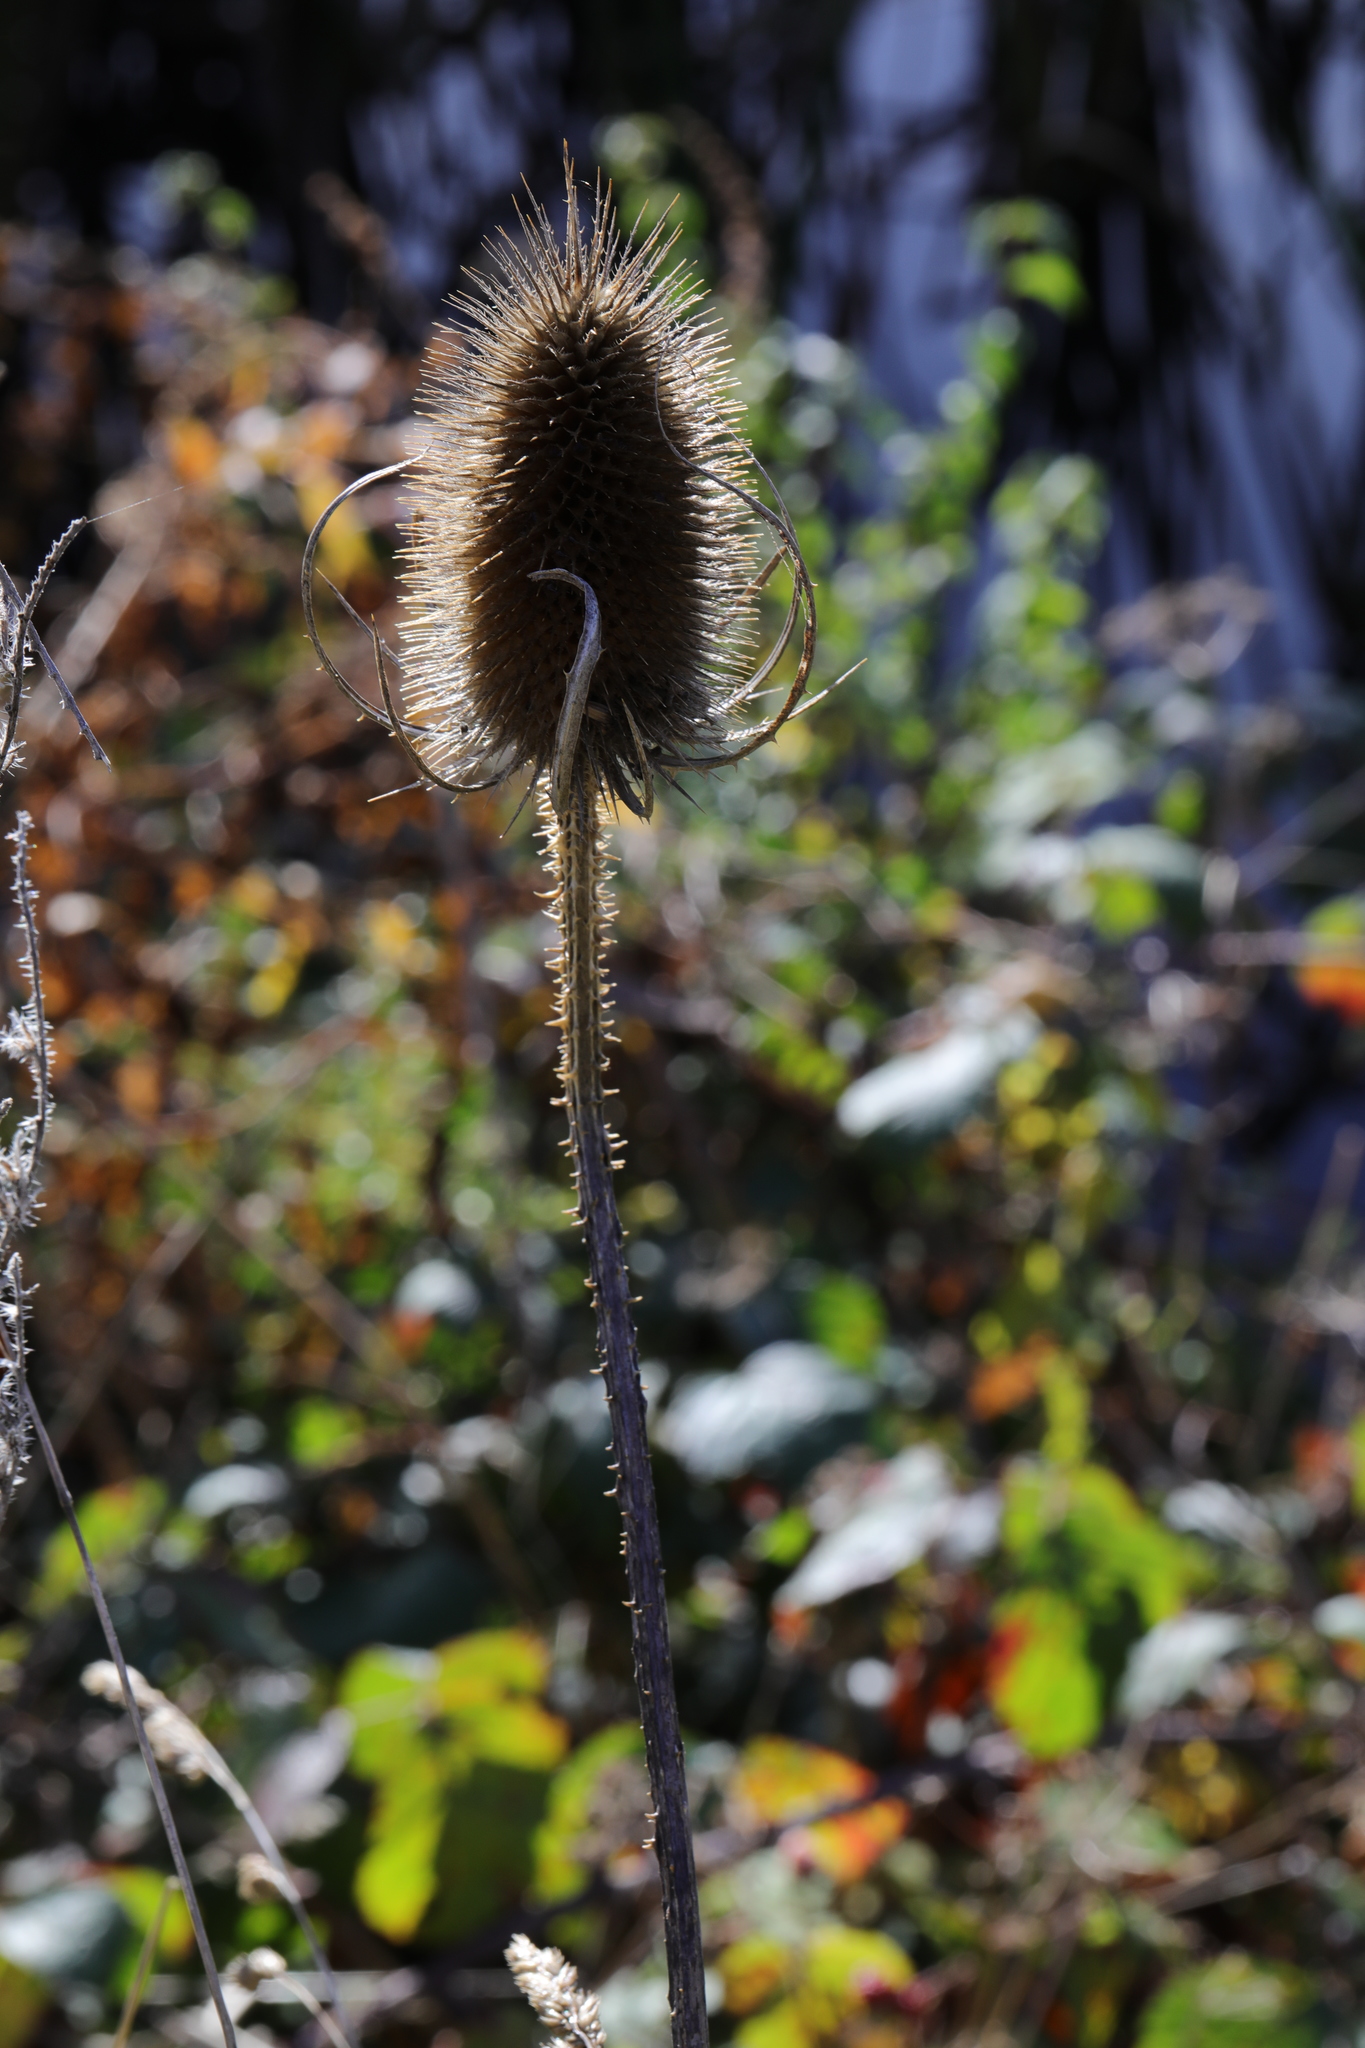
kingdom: Plantae
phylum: Tracheophyta
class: Magnoliopsida
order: Dipsacales
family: Caprifoliaceae
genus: Dipsacus
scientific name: Dipsacus fullonum
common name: Teasel
